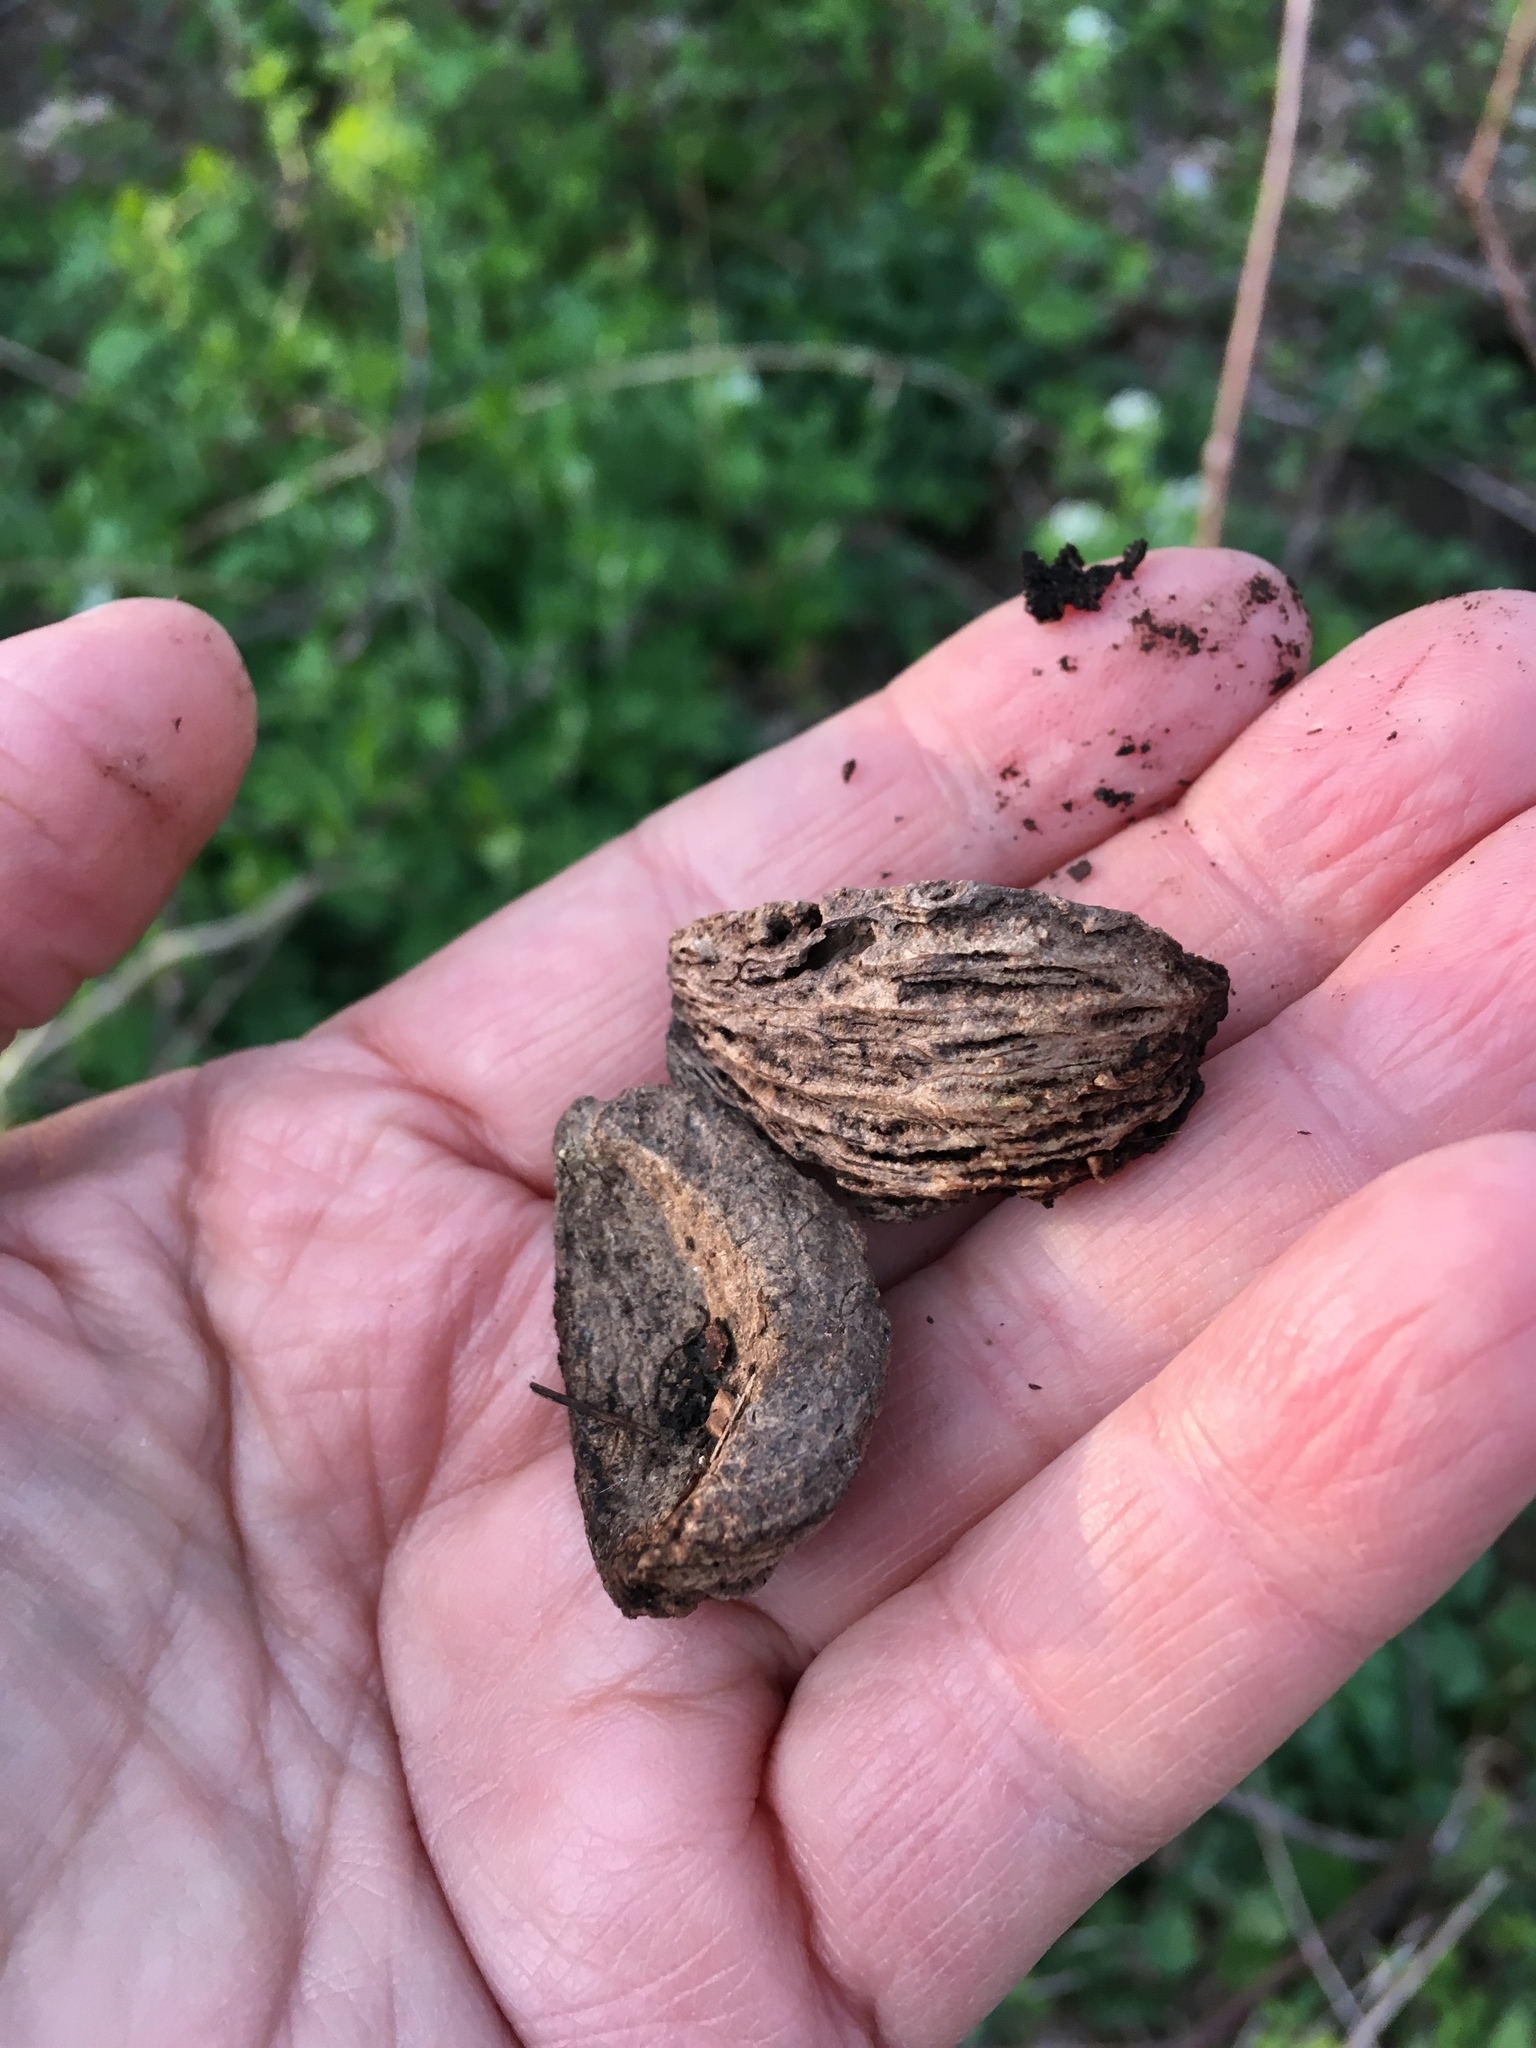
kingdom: Plantae
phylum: Tracheophyta
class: Magnoliopsida
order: Fagales
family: Juglandaceae
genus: Carya
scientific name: Carya alba
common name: Mockernut hickory
